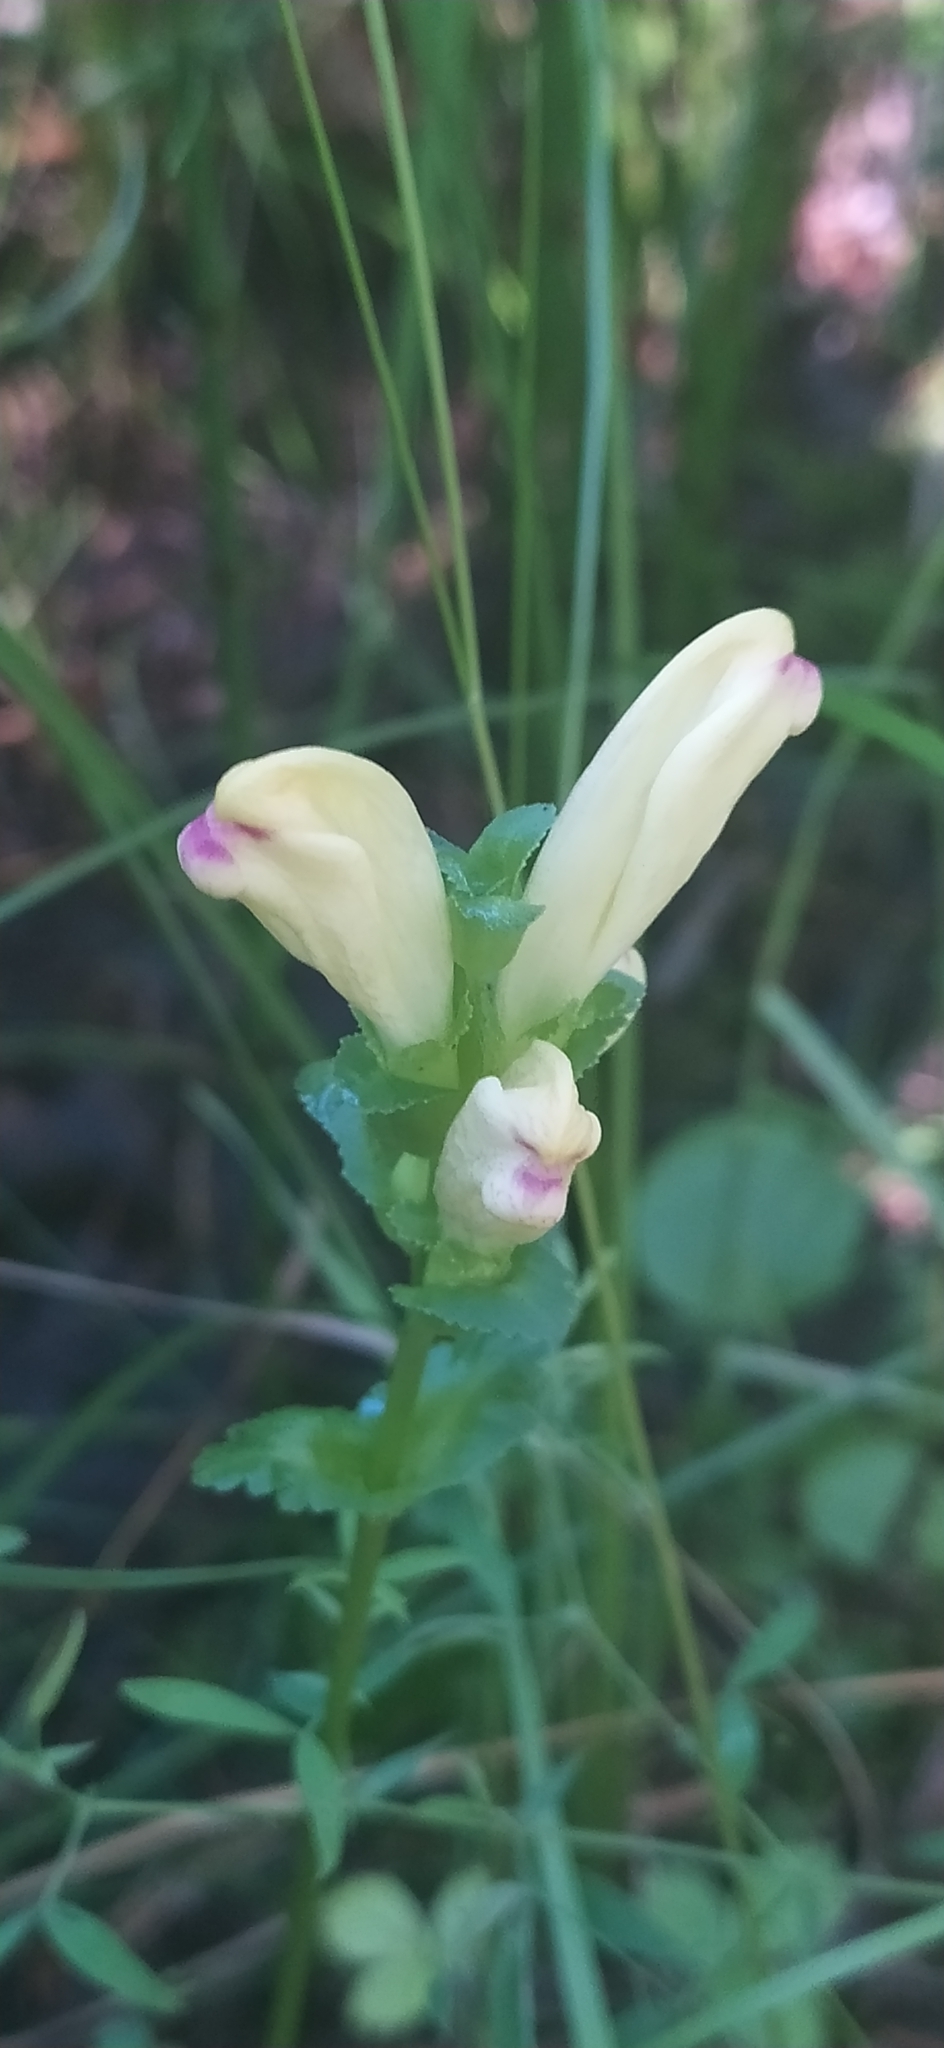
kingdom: Plantae
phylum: Tracheophyta
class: Magnoliopsida
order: Lamiales
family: Orobanchaceae
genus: Pedicularis
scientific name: Pedicularis sceptrum-carolinum
